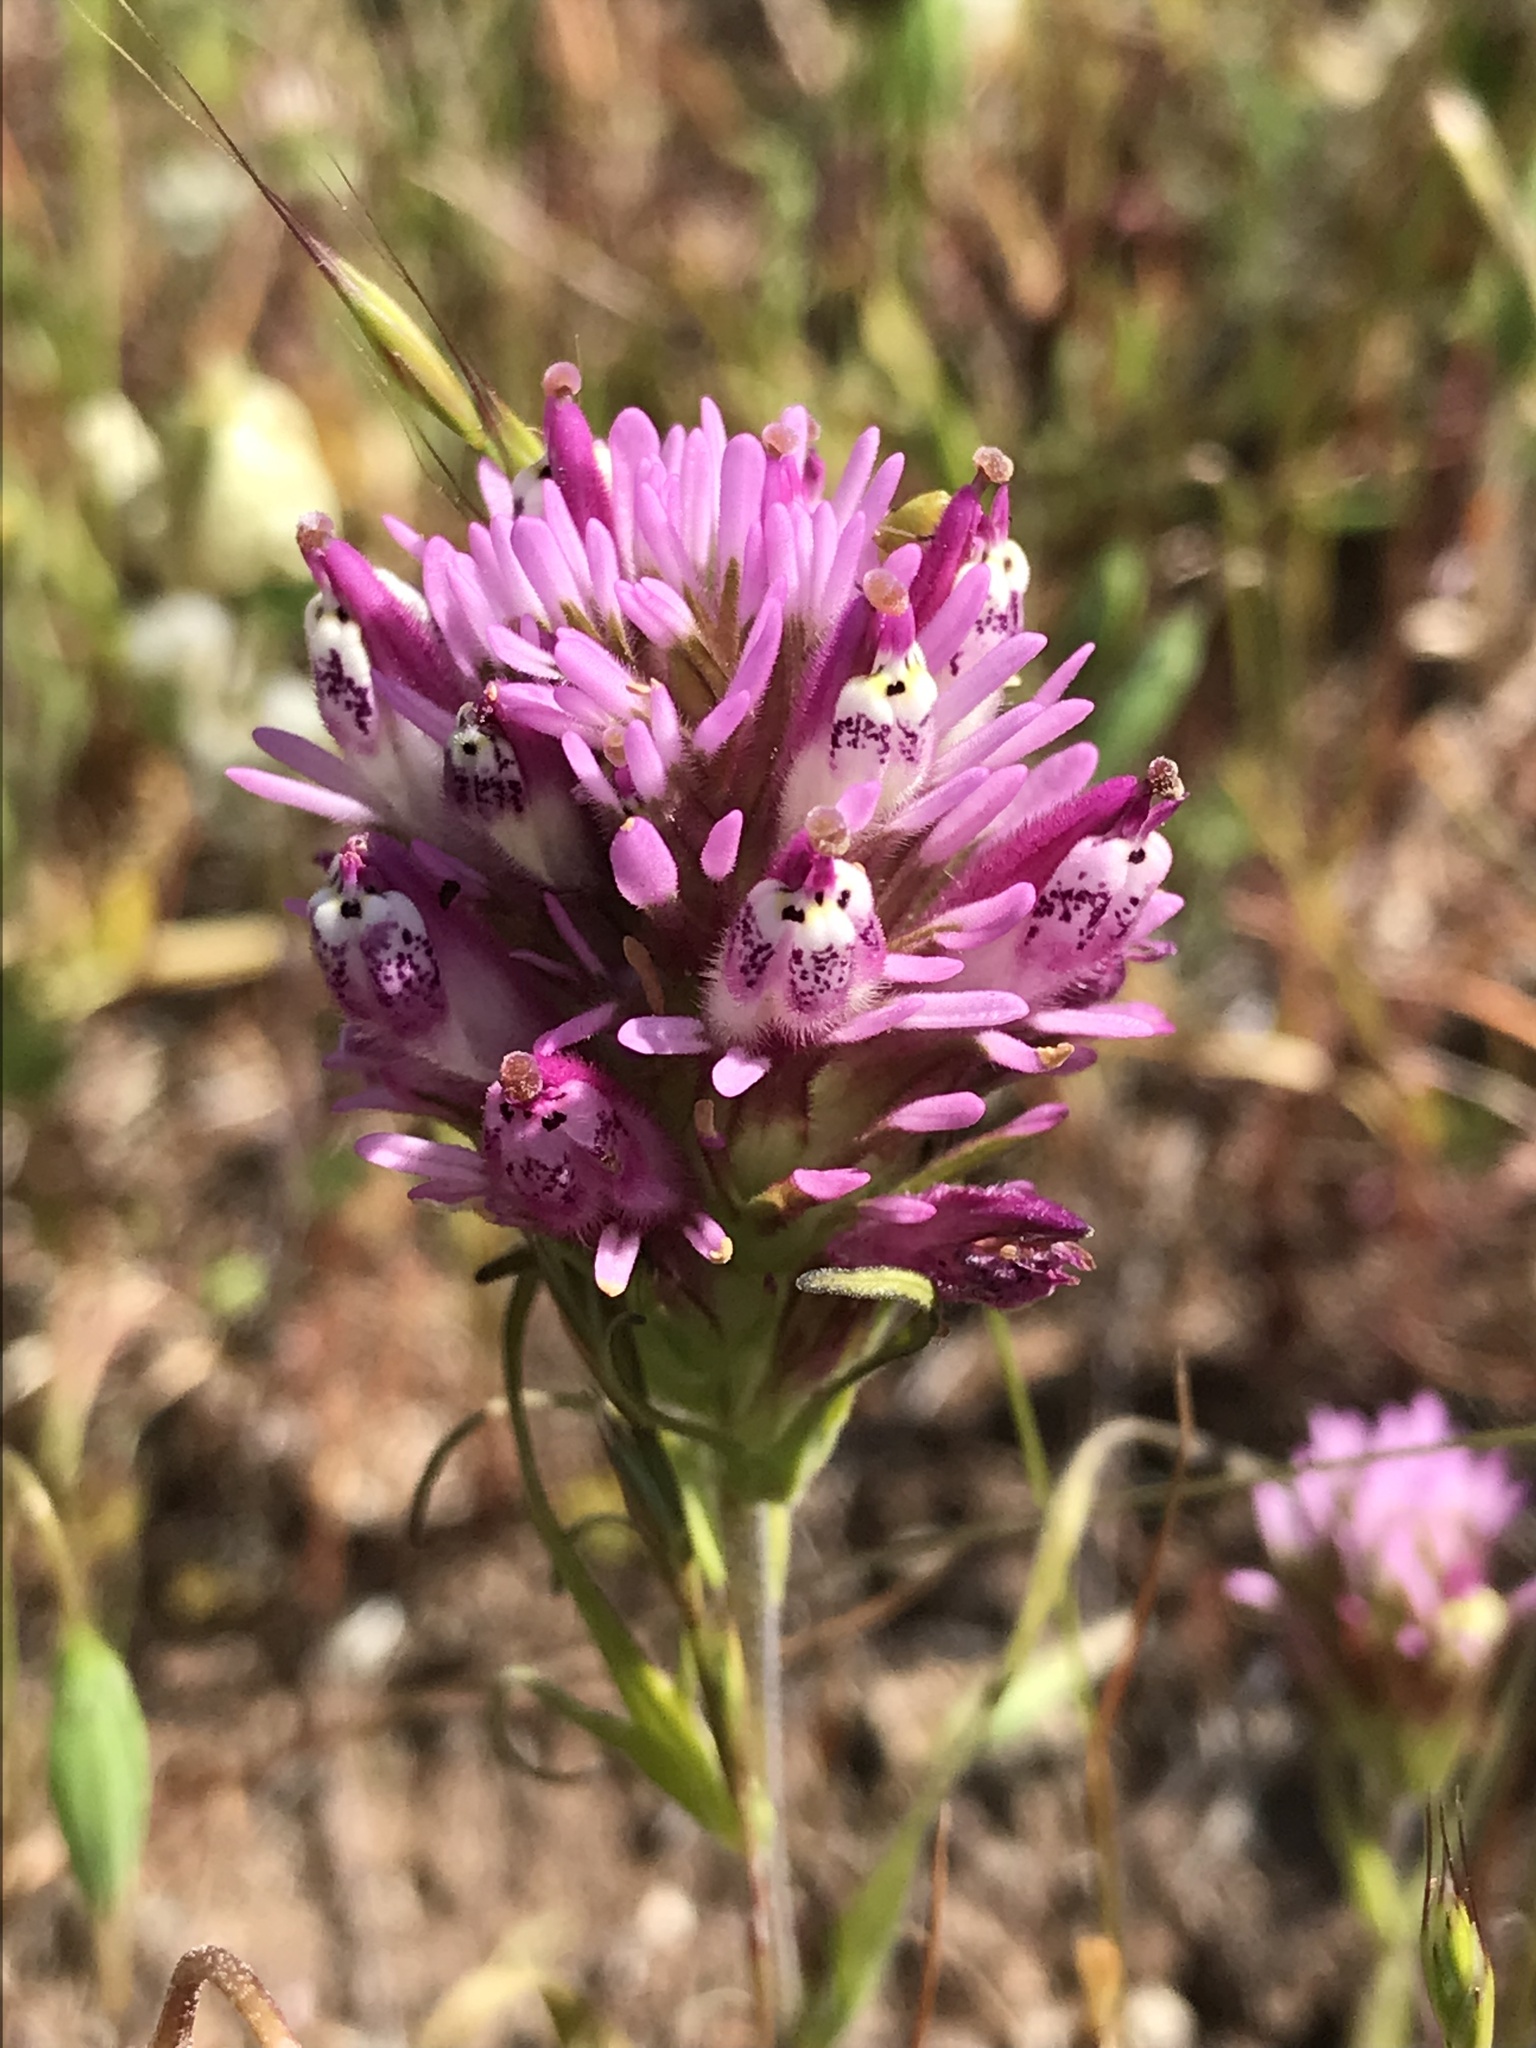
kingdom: Plantae
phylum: Tracheophyta
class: Magnoliopsida
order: Lamiales
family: Orobanchaceae
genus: Castilleja
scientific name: Castilleja densiflora
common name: Dense-flower indian paintbrush
